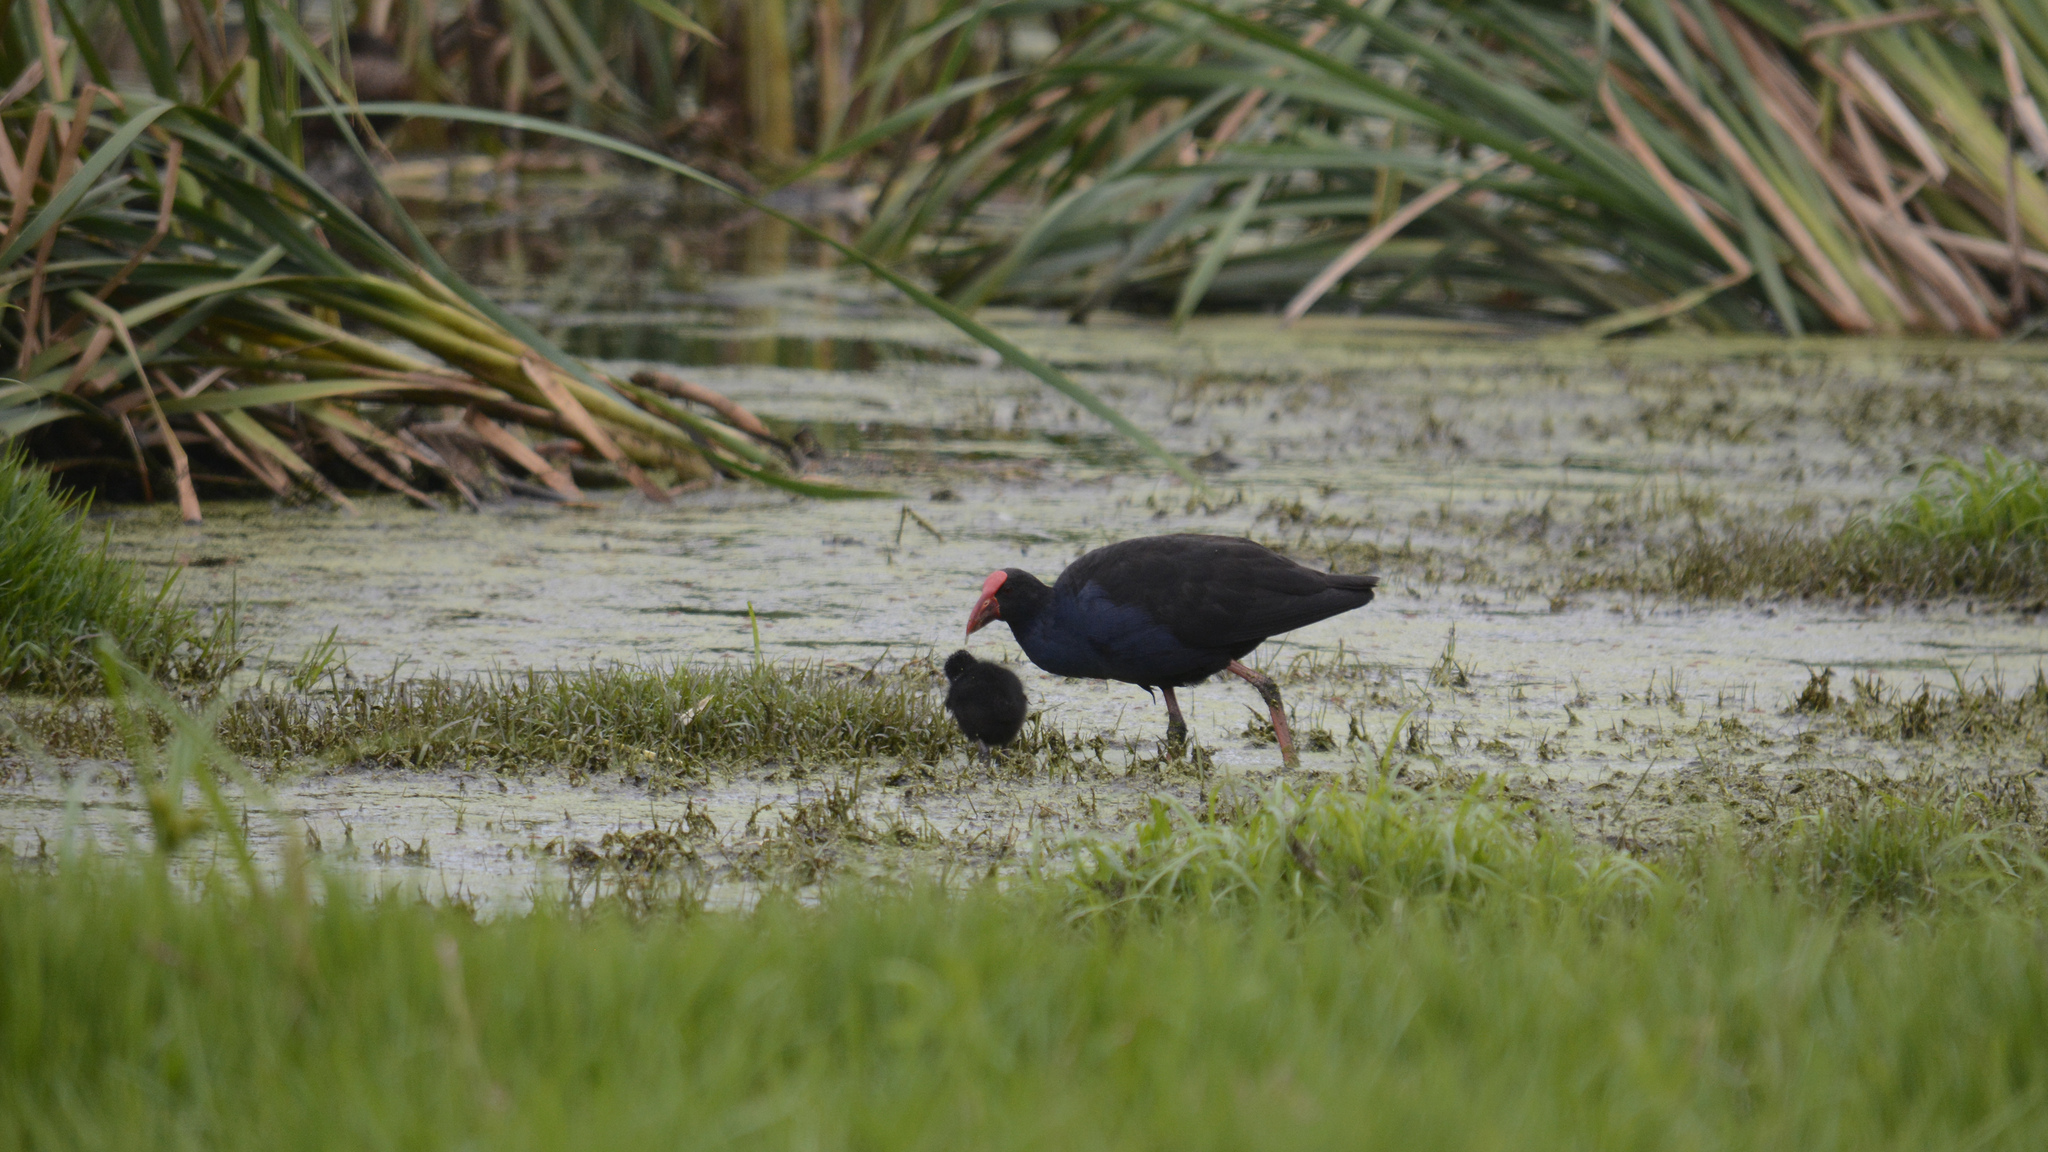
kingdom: Animalia
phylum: Chordata
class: Aves
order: Gruiformes
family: Rallidae
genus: Porphyrio
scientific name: Porphyrio melanotus
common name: Australasian swamphen
